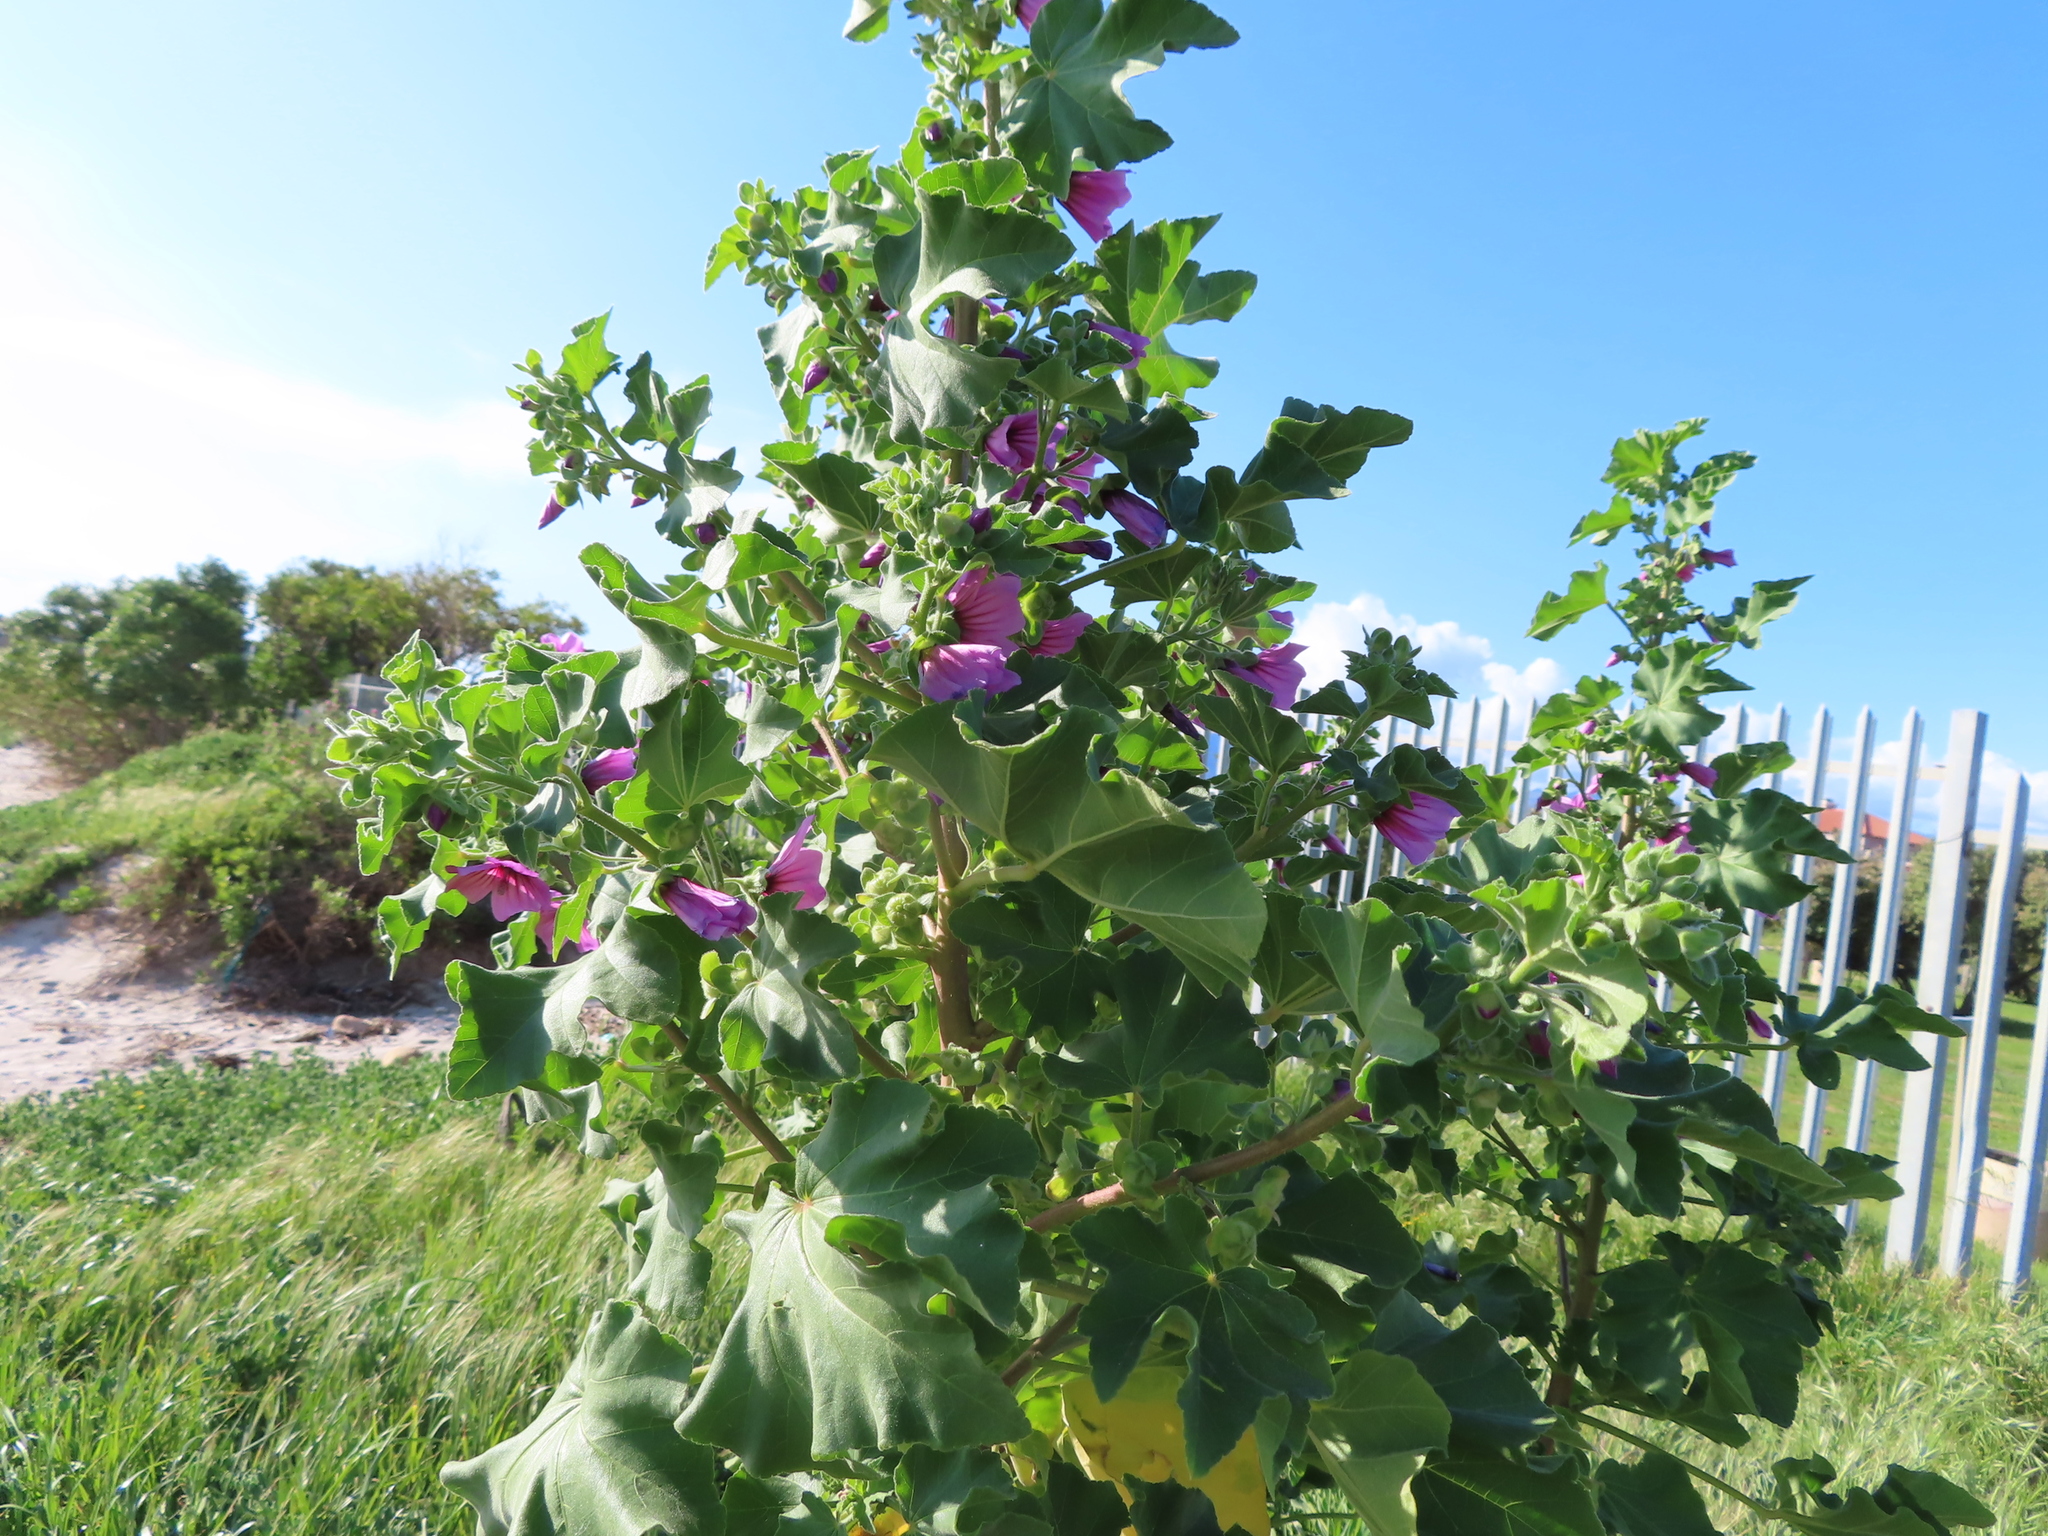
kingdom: Plantae
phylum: Tracheophyta
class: Magnoliopsida
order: Malvales
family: Malvaceae
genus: Malva
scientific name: Malva arborea
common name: Tree mallow
